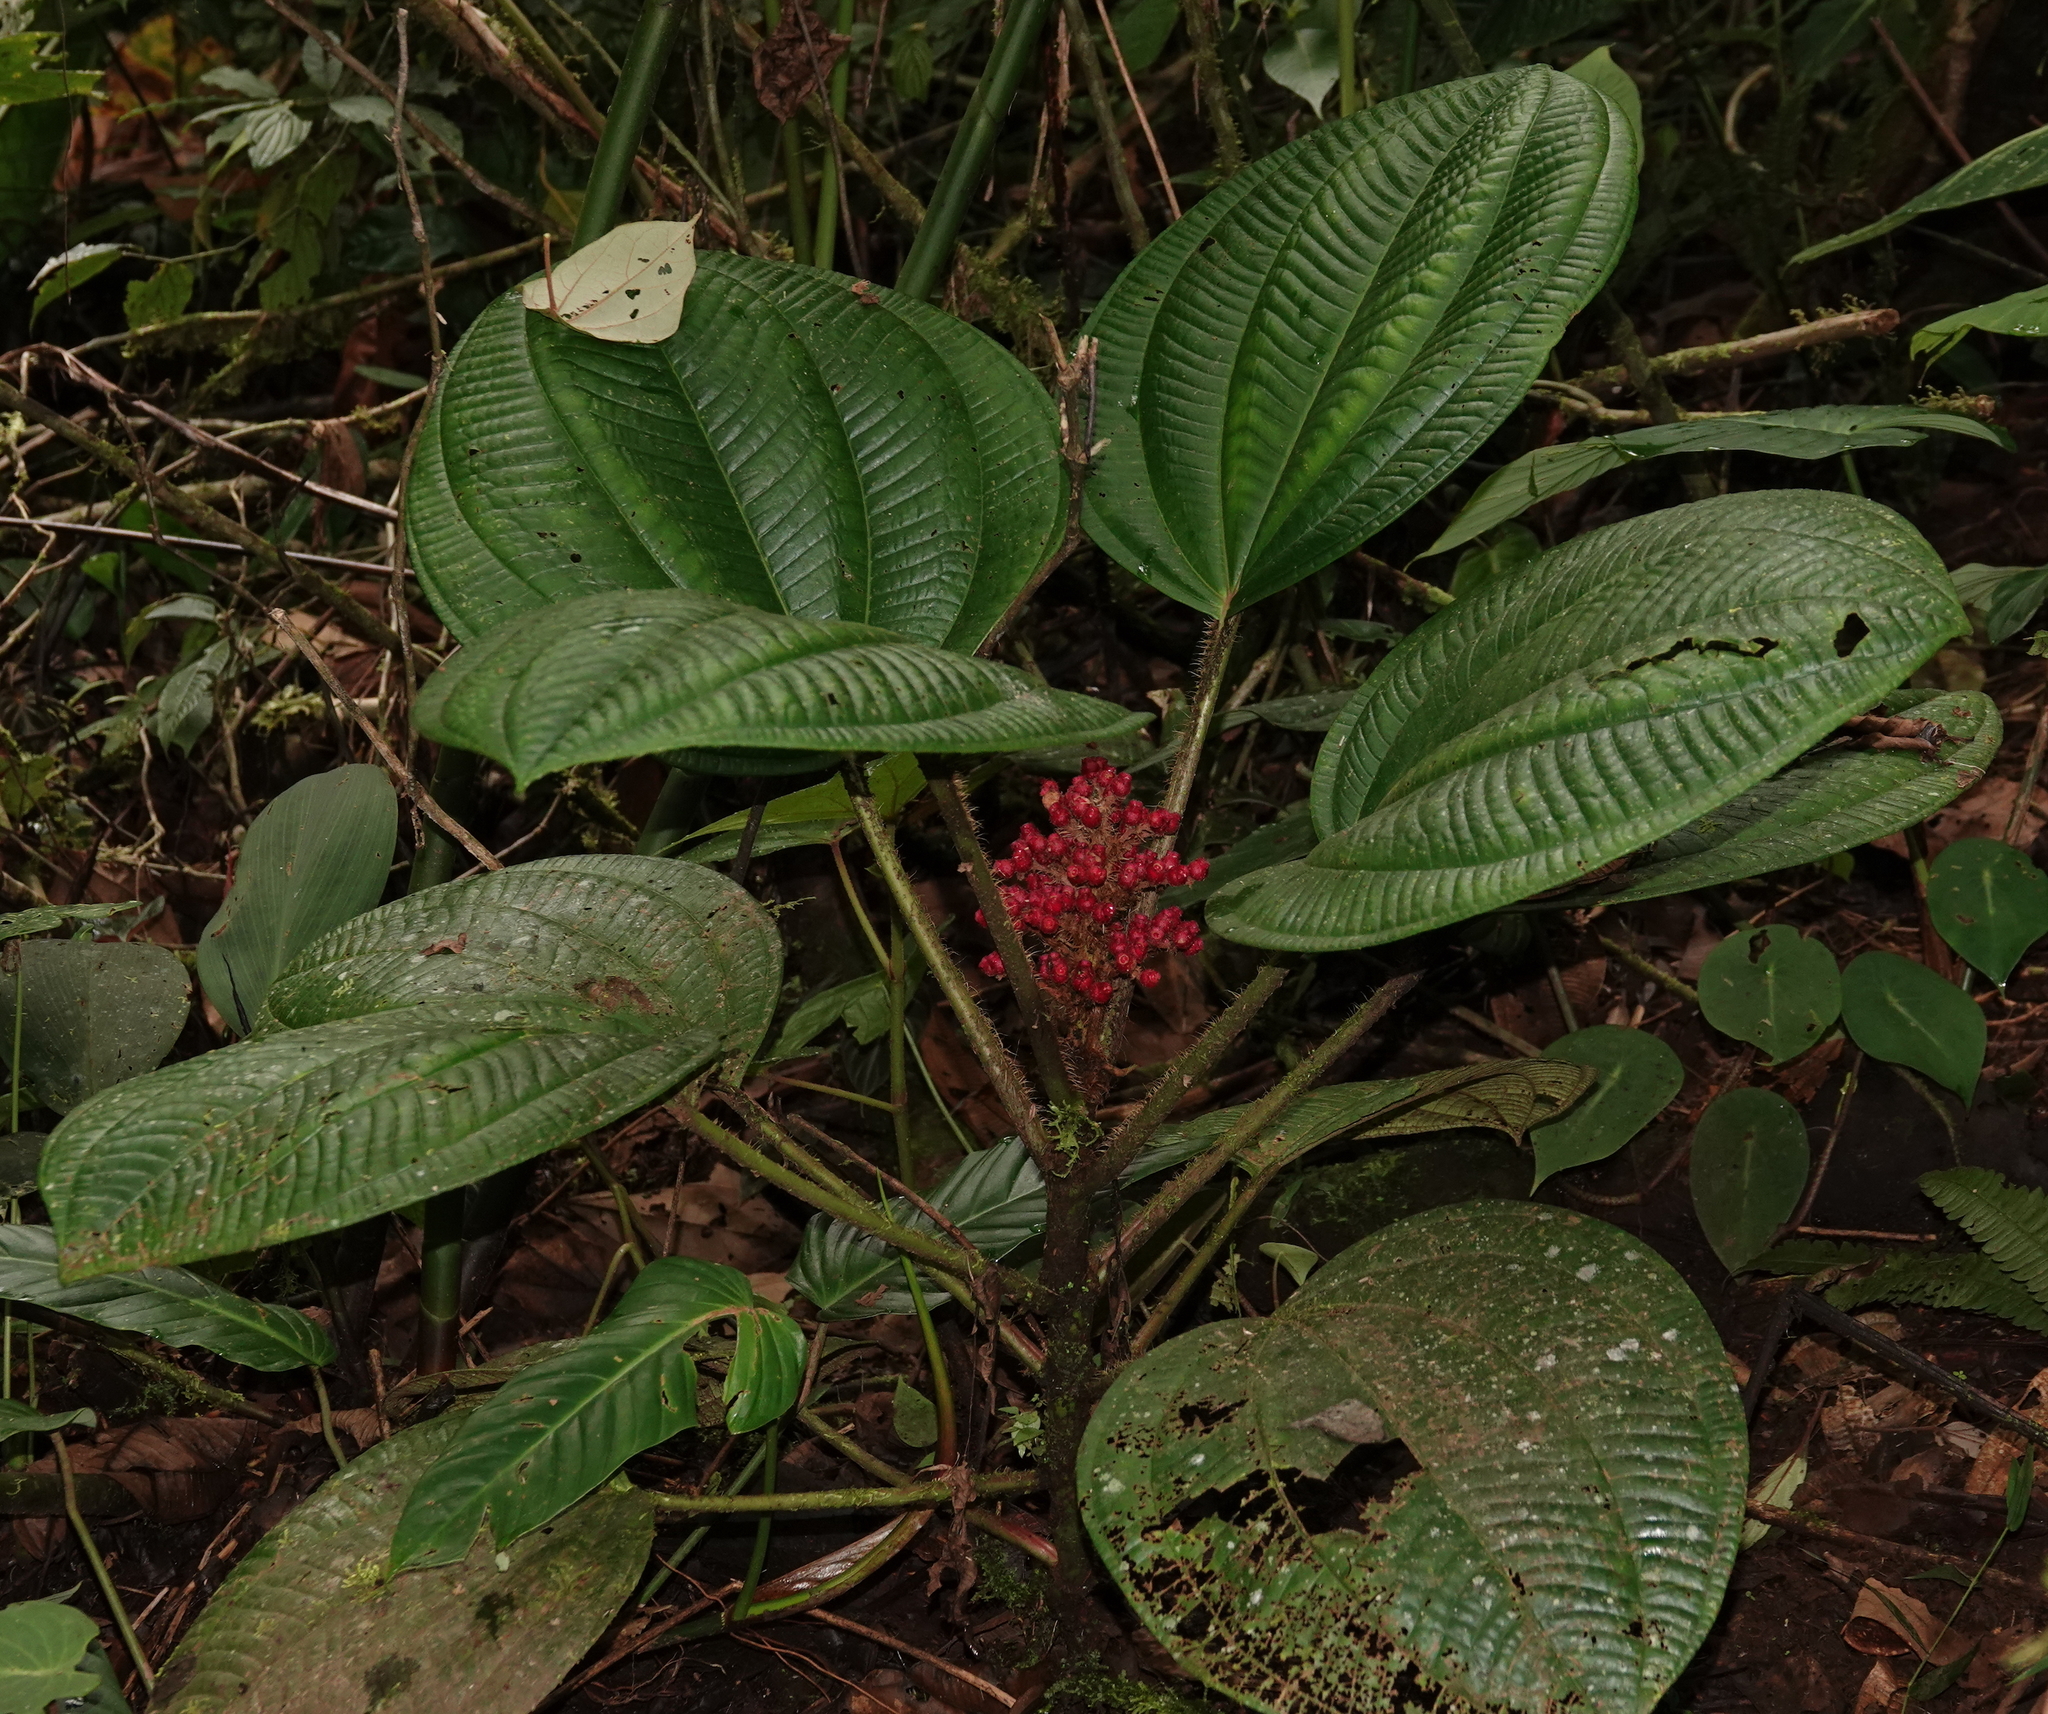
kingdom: Plantae
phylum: Tracheophyta
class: Magnoliopsida
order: Myrtales
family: Melastomataceae
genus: Miconia
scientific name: Miconia platyphylla
